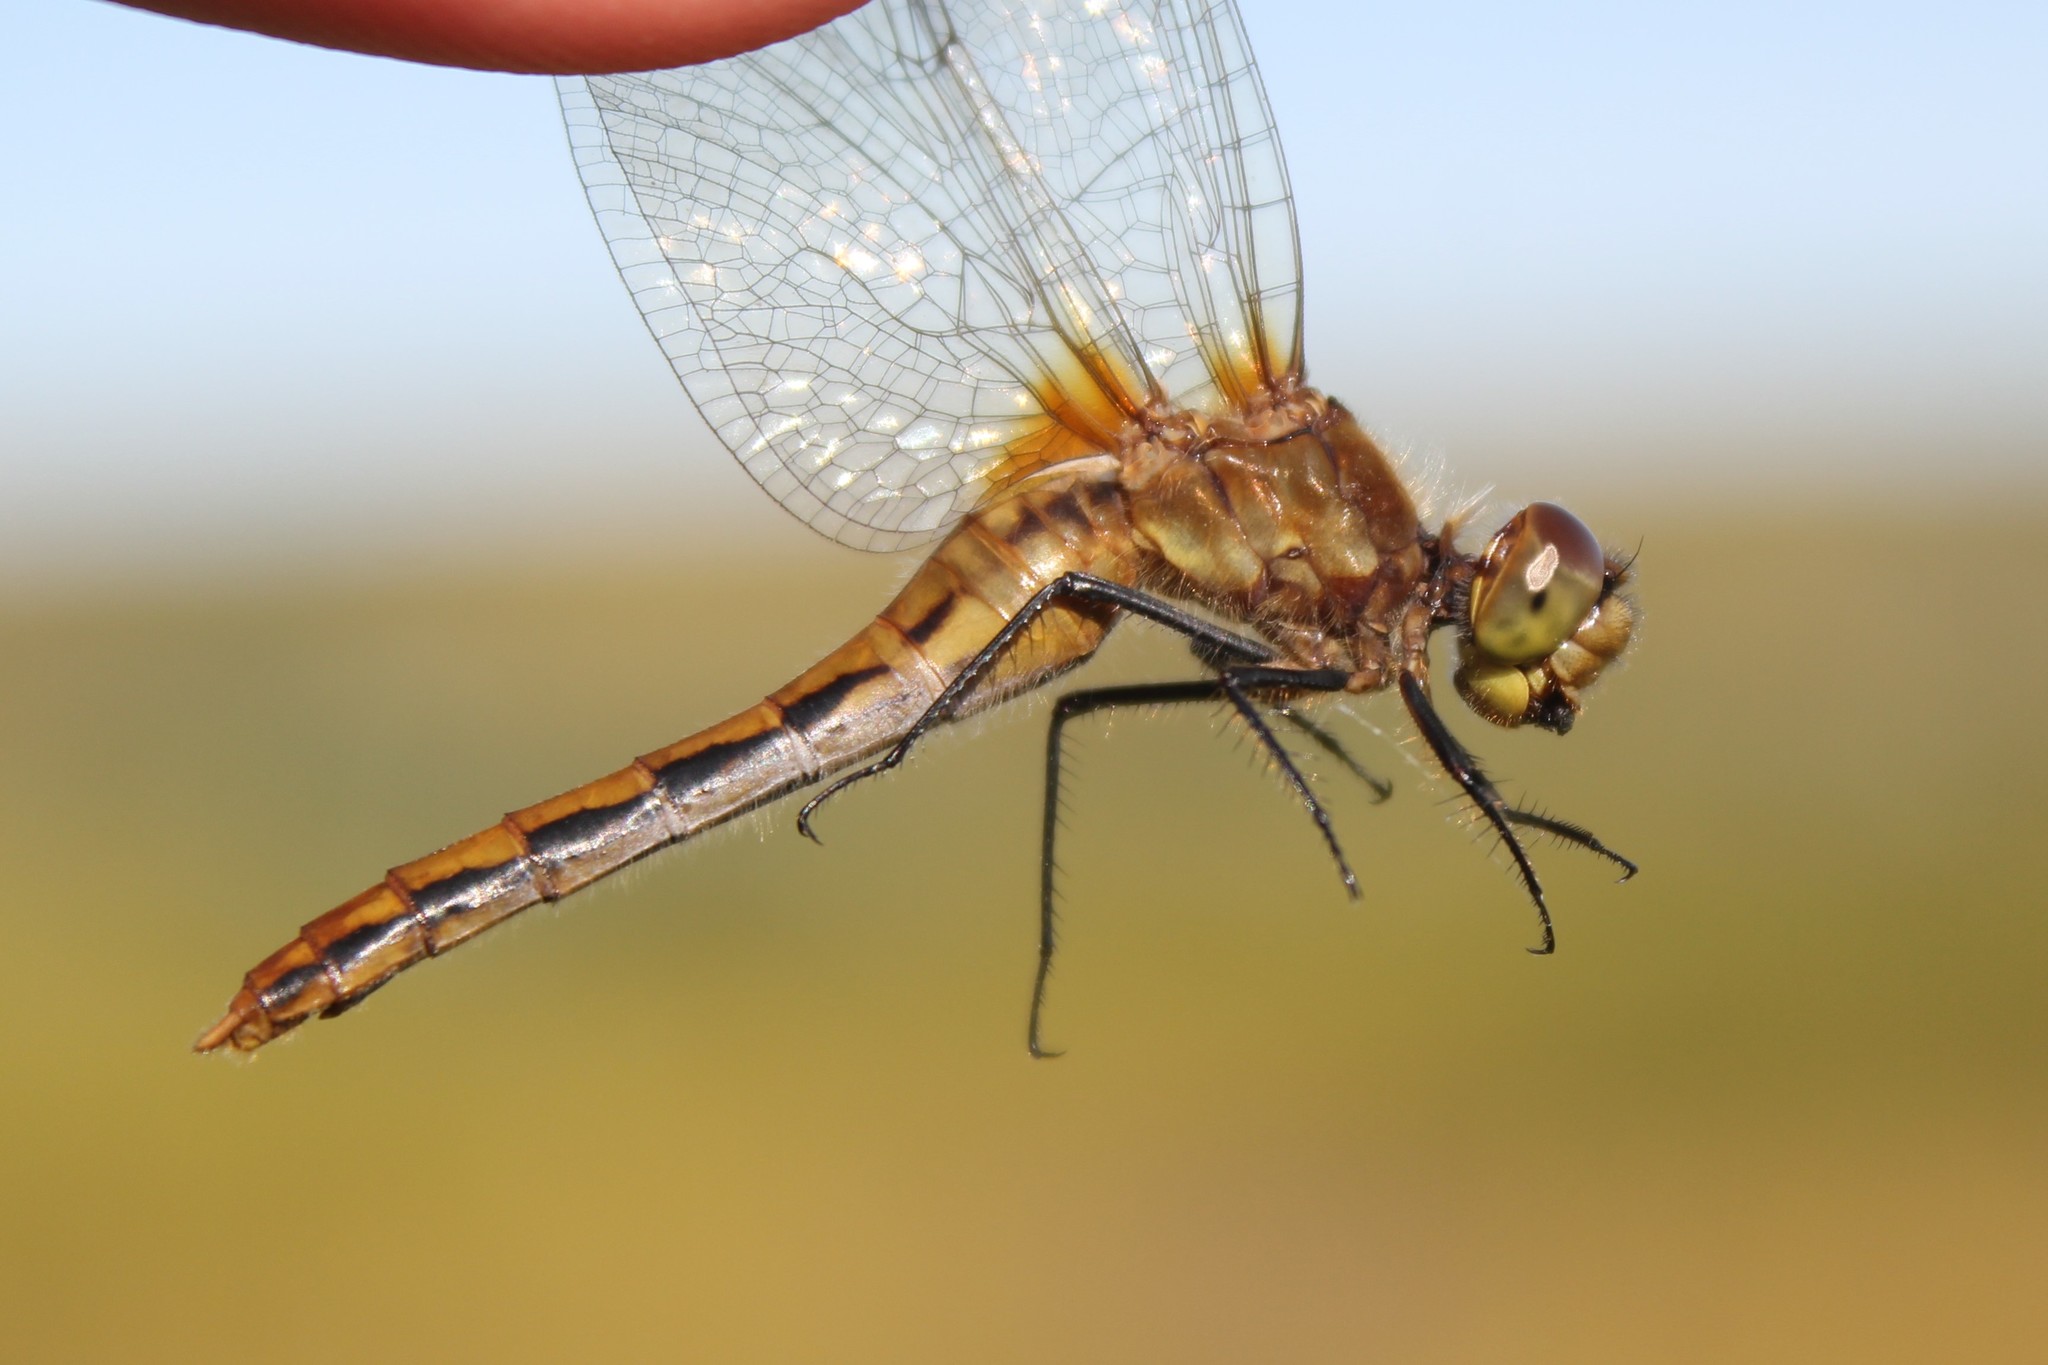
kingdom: Animalia
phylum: Arthropoda
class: Insecta
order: Odonata
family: Libellulidae
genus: Sympetrum
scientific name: Sympetrum internum
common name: Cherry-faced meadowhawk
